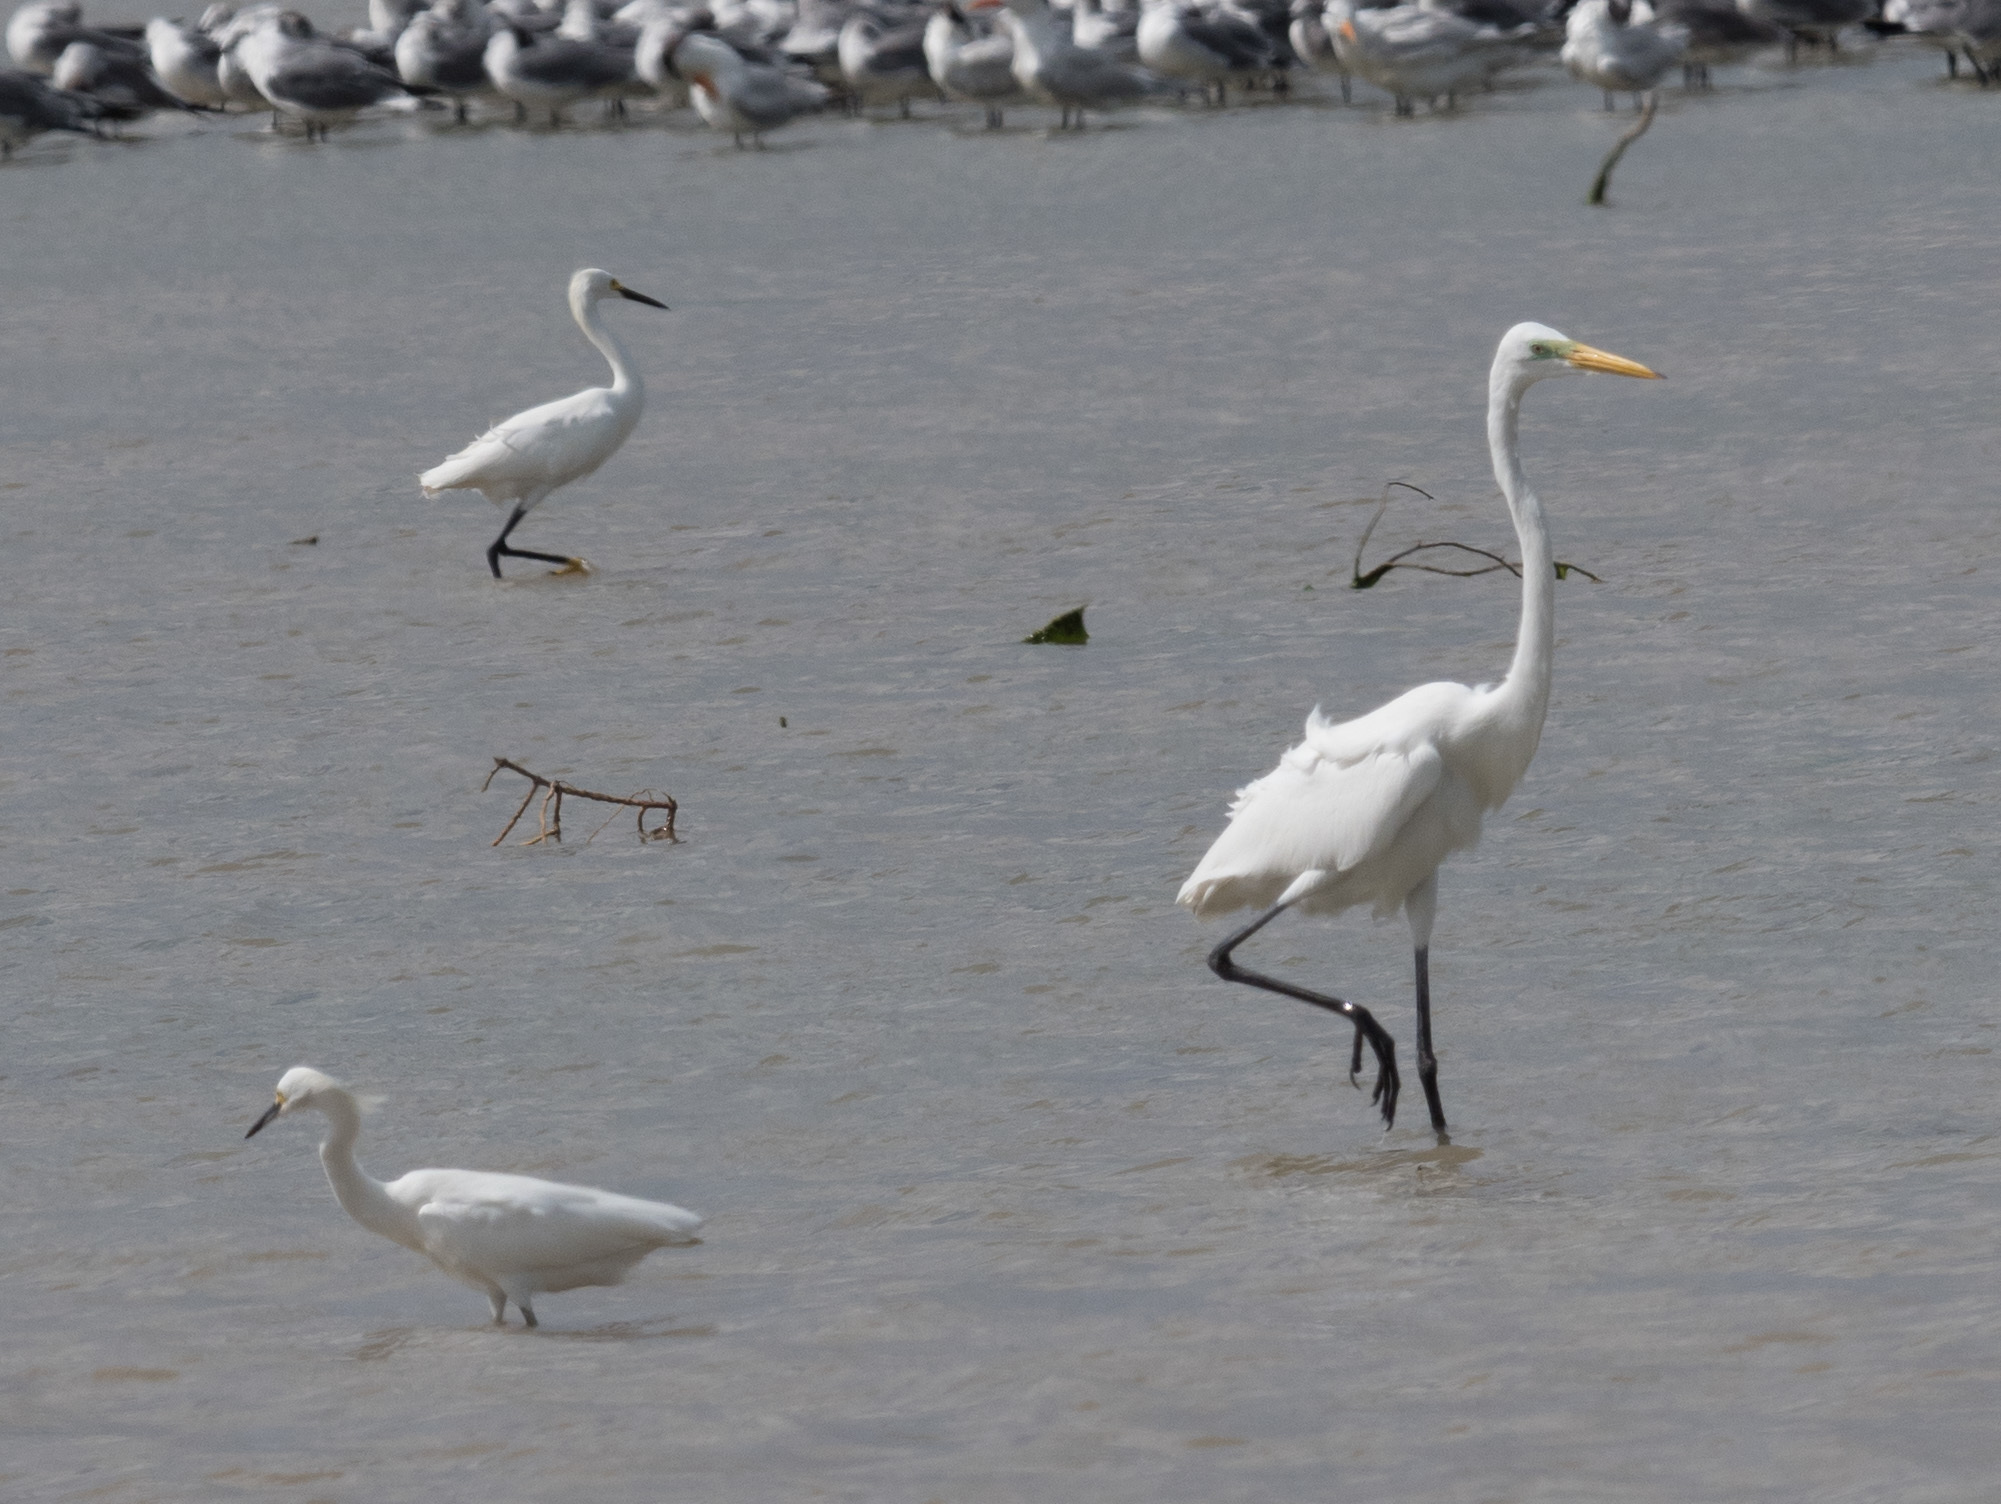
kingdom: Animalia
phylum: Chordata
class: Aves
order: Pelecaniformes
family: Ardeidae
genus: Ardea
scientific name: Ardea alba
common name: Great egret
